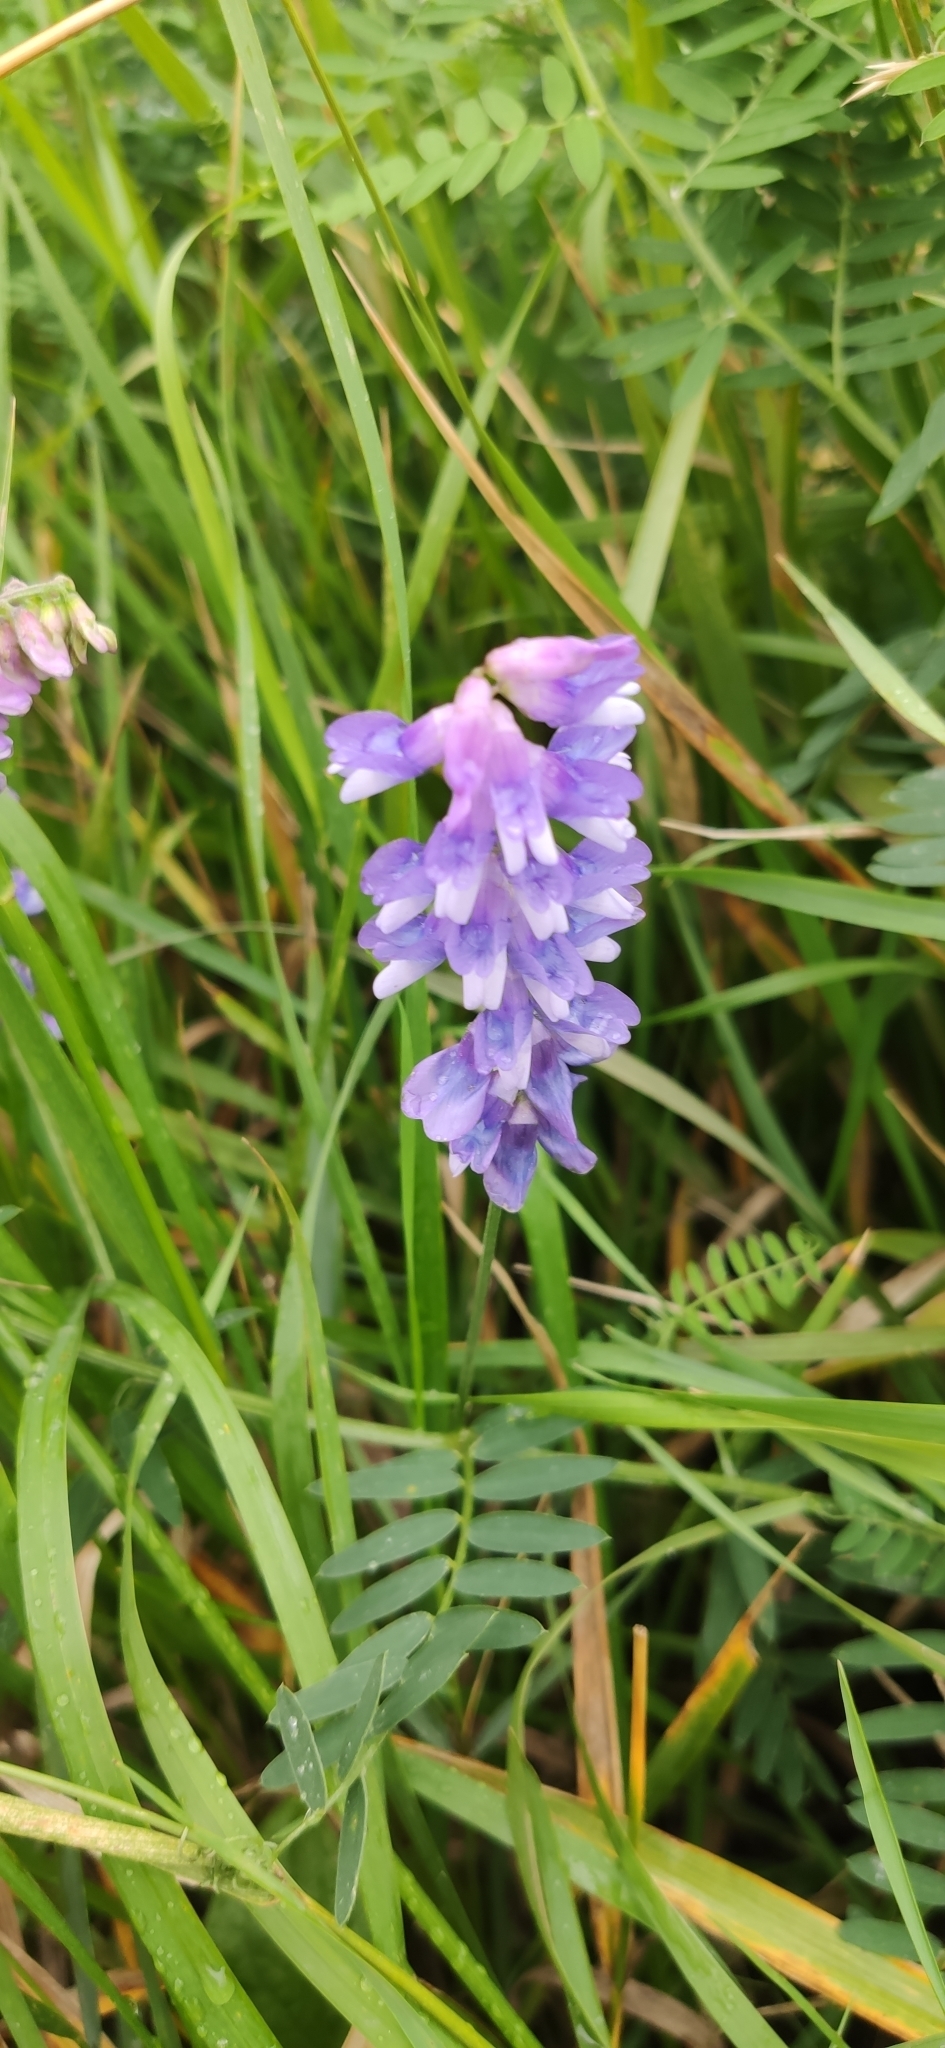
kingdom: Plantae
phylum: Tracheophyta
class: Magnoliopsida
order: Fabales
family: Fabaceae
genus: Vicia
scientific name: Vicia cracca
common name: Bird vetch
